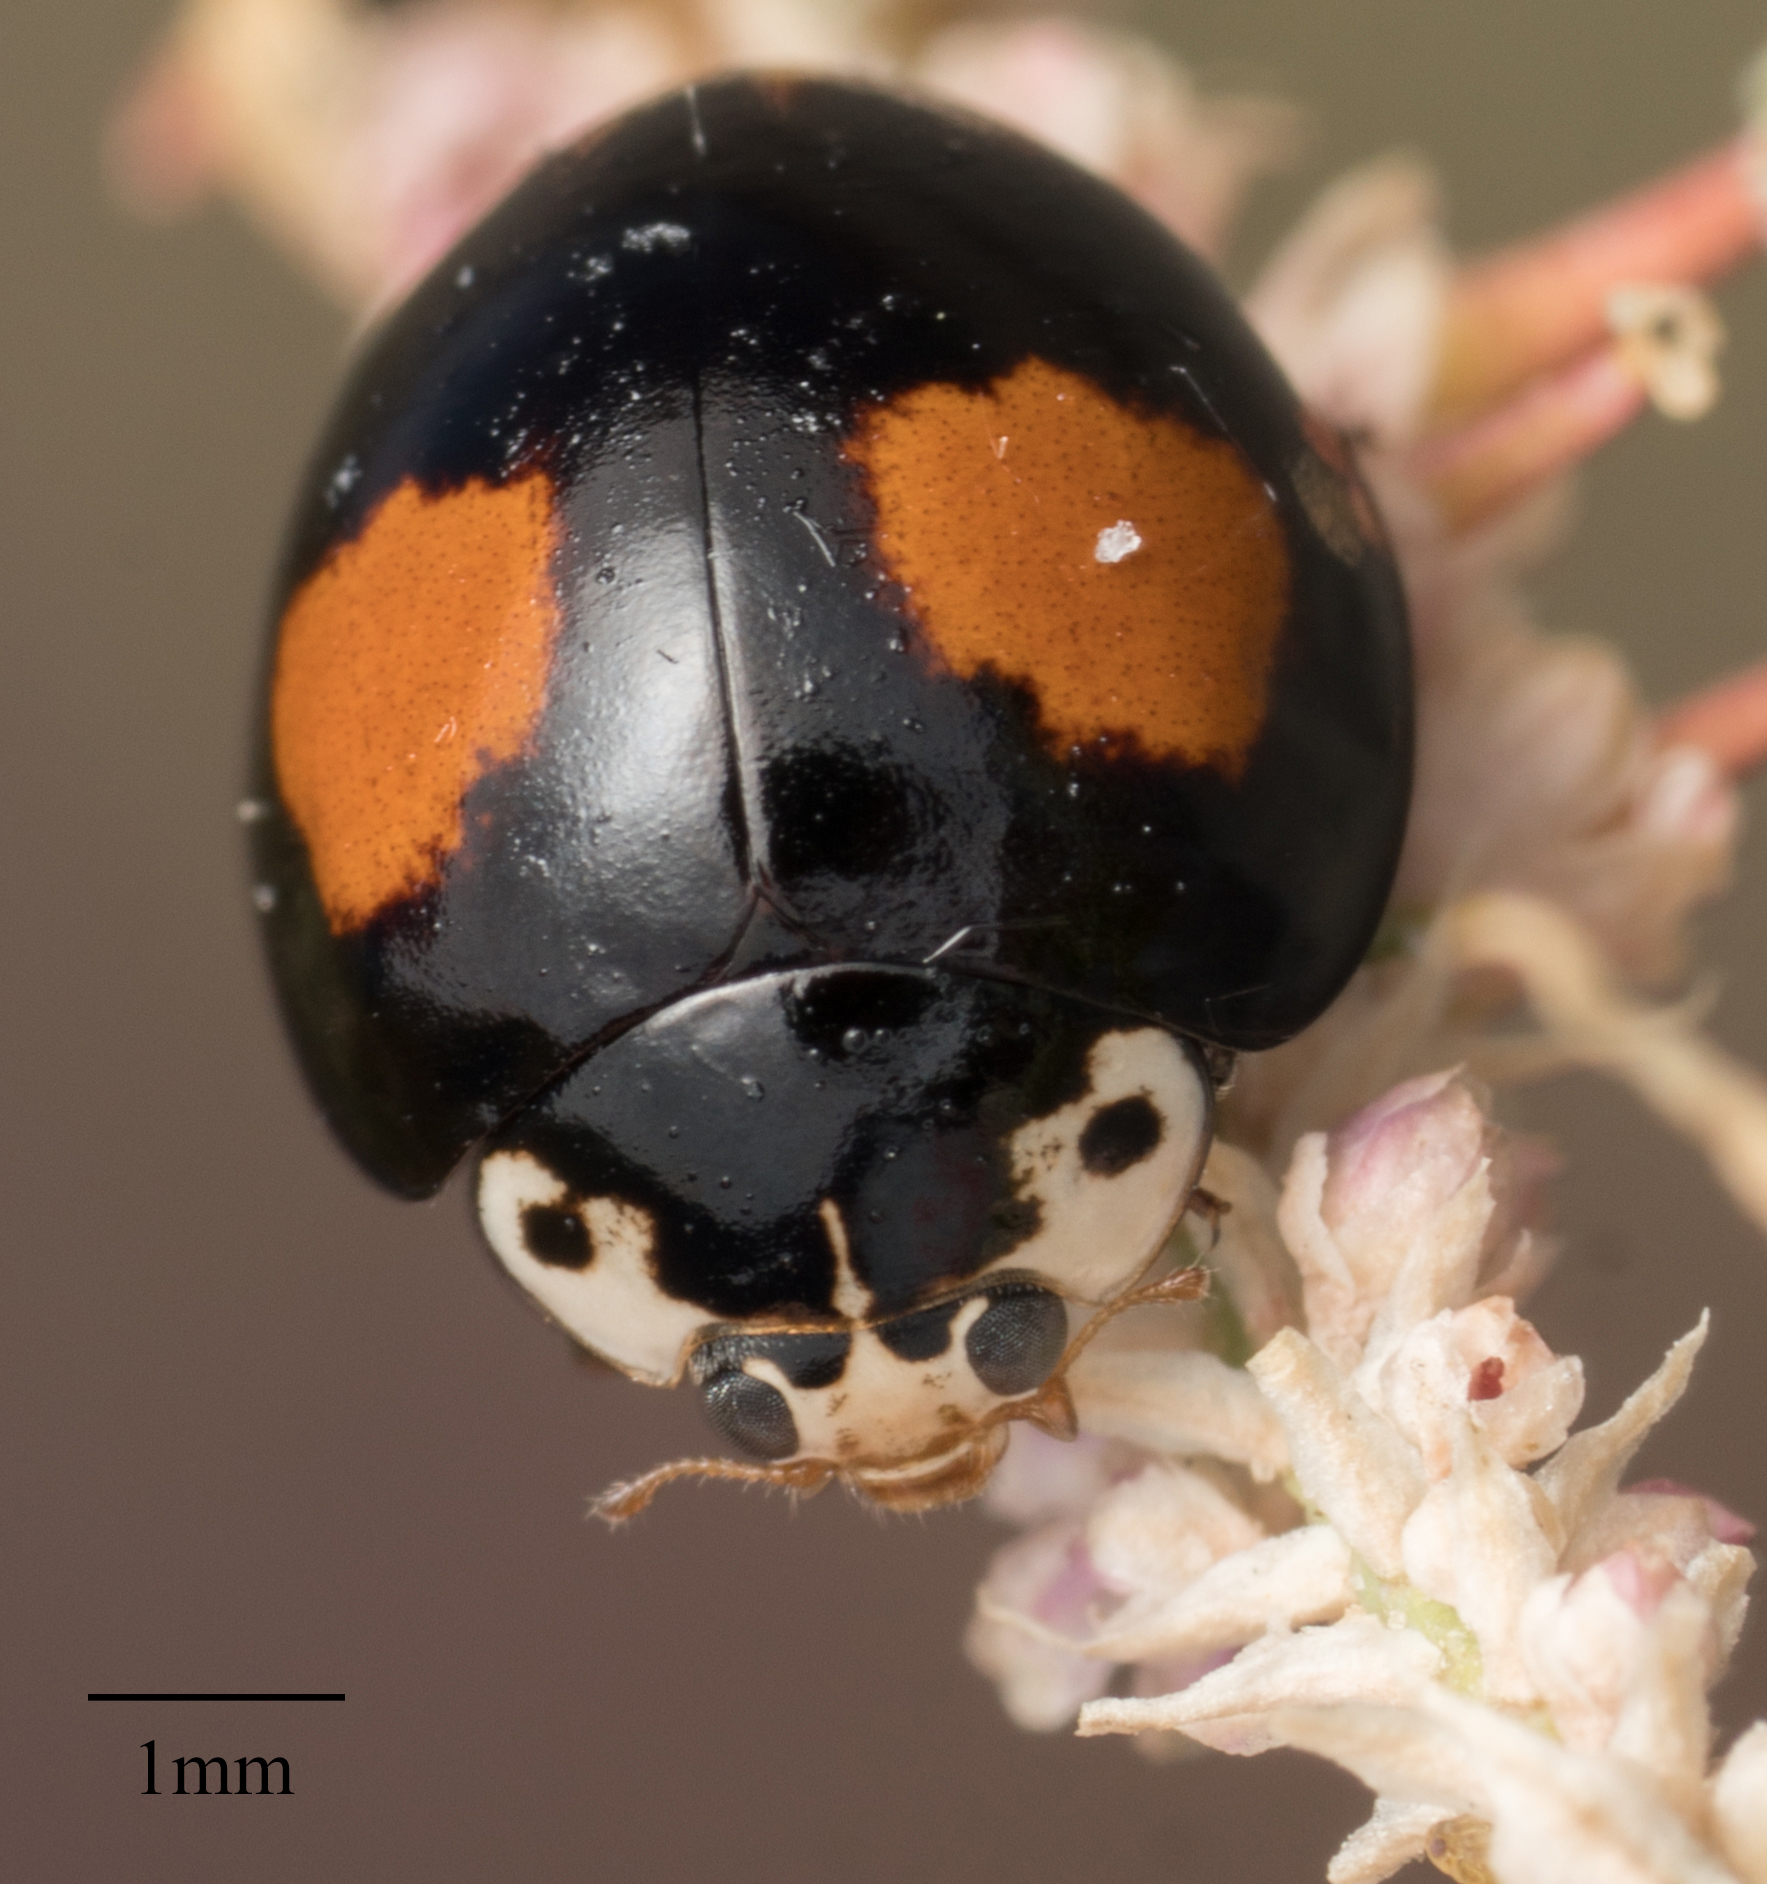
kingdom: Animalia
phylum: Arthropoda
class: Insecta
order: Coleoptera
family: Coccinellidae
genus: Olla
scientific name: Olla v-nigrum
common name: Ashy gray lady beetle
